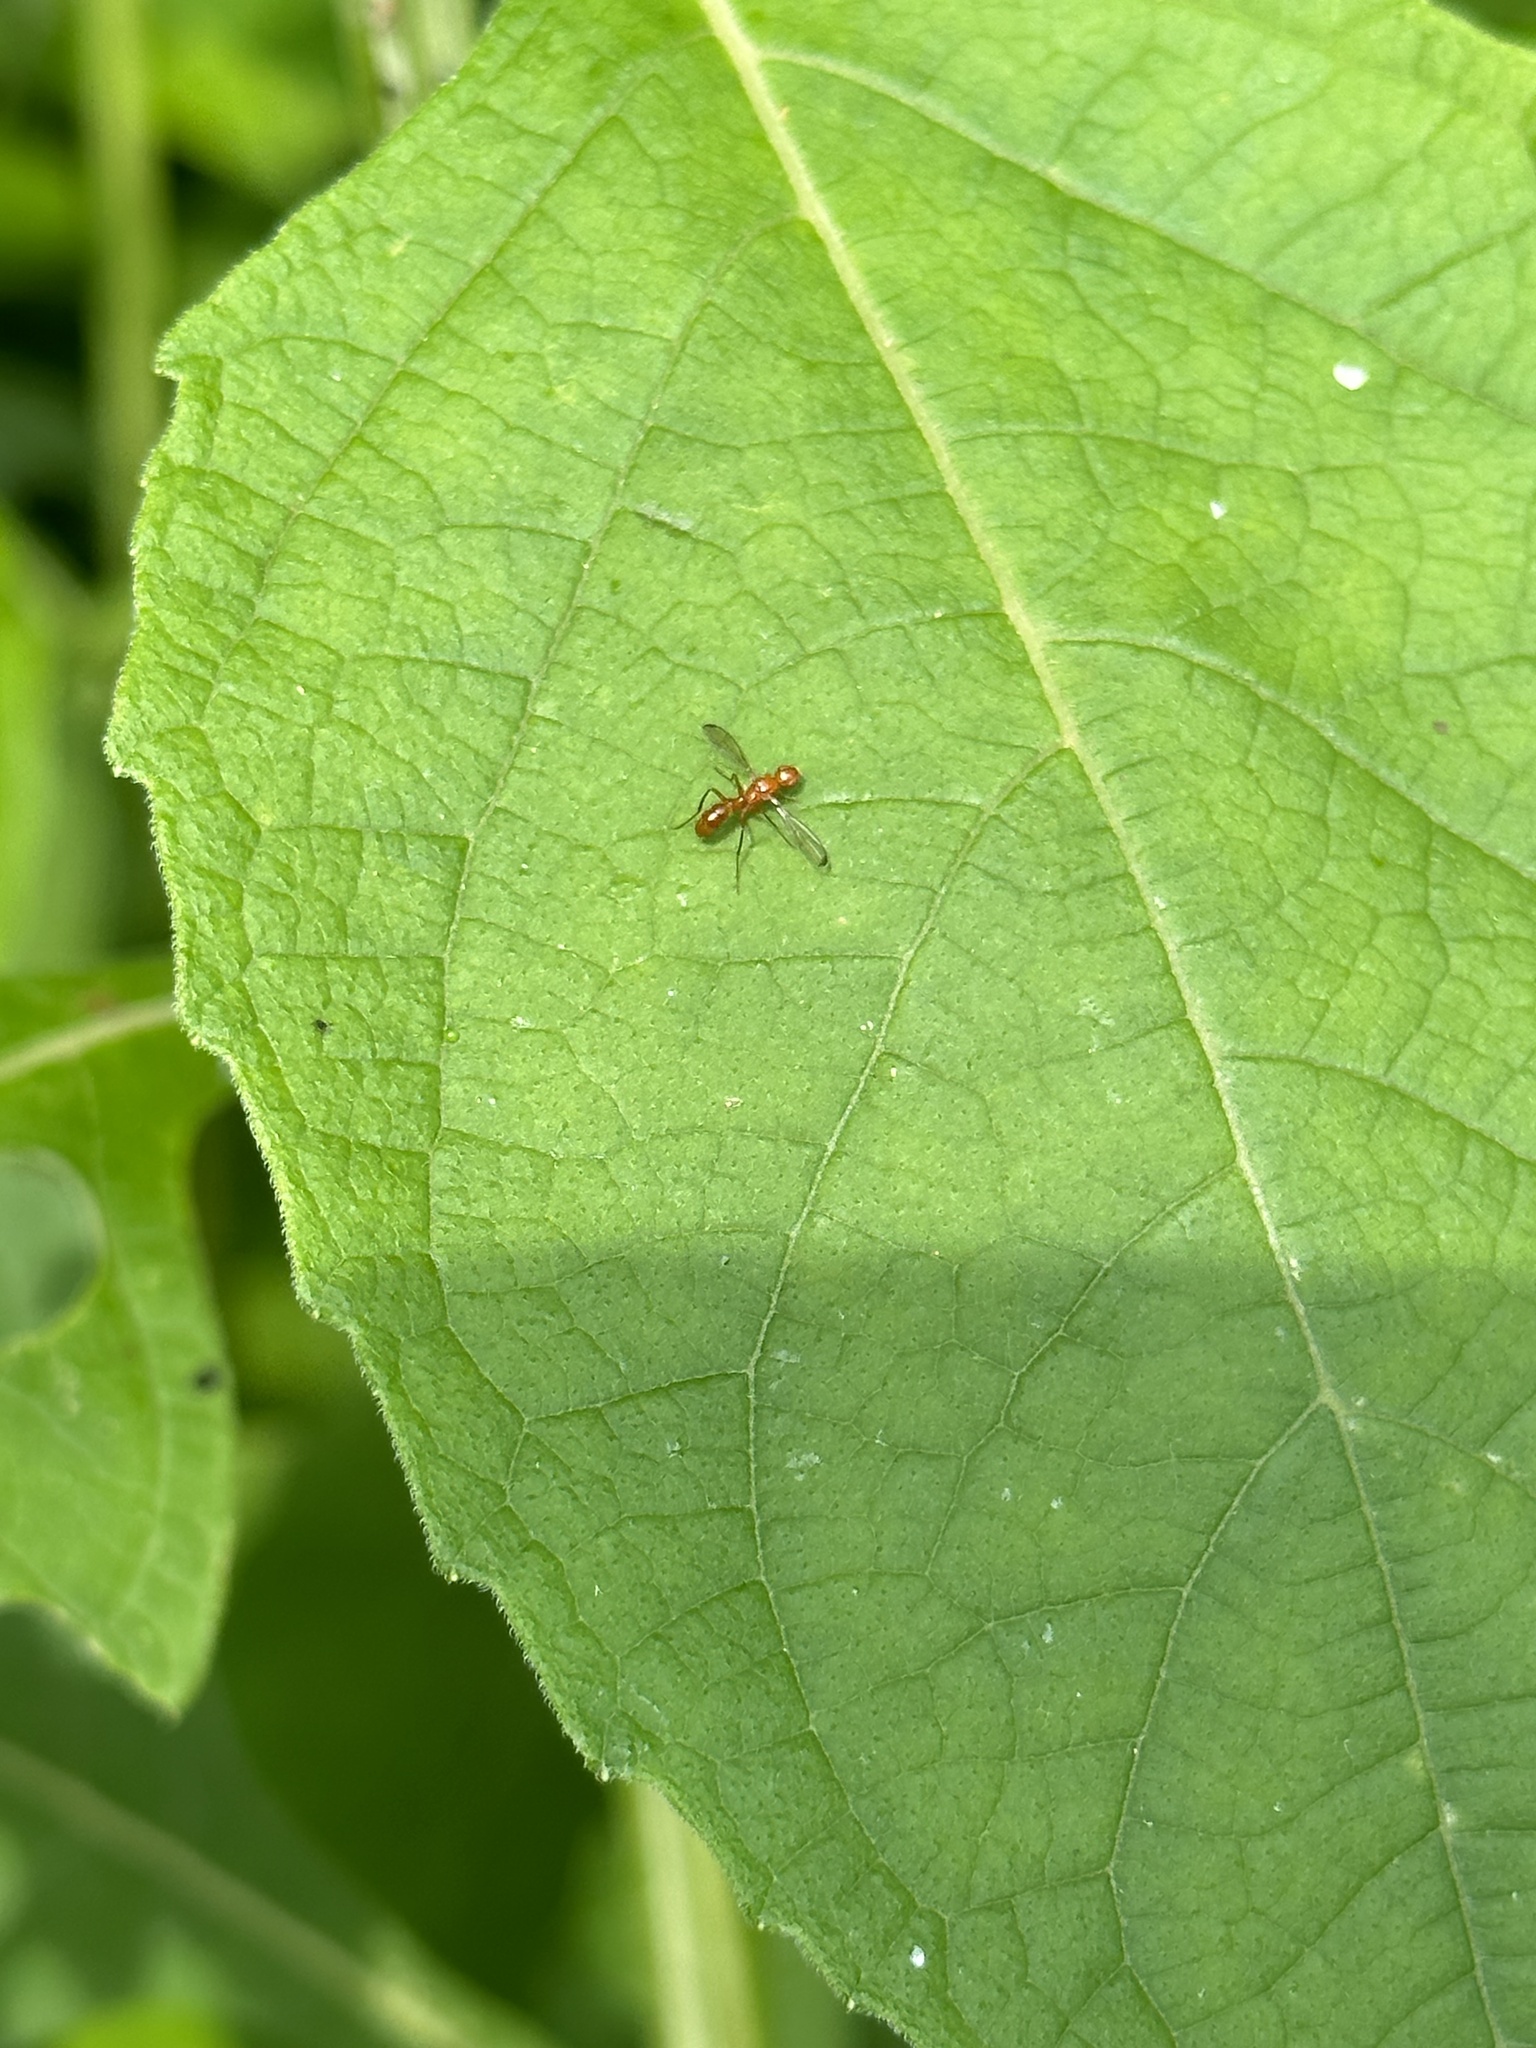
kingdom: Animalia
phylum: Arthropoda
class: Insecta
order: Diptera
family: Richardiidae
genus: Sepsisoma
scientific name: Sepsisoma flavescens
